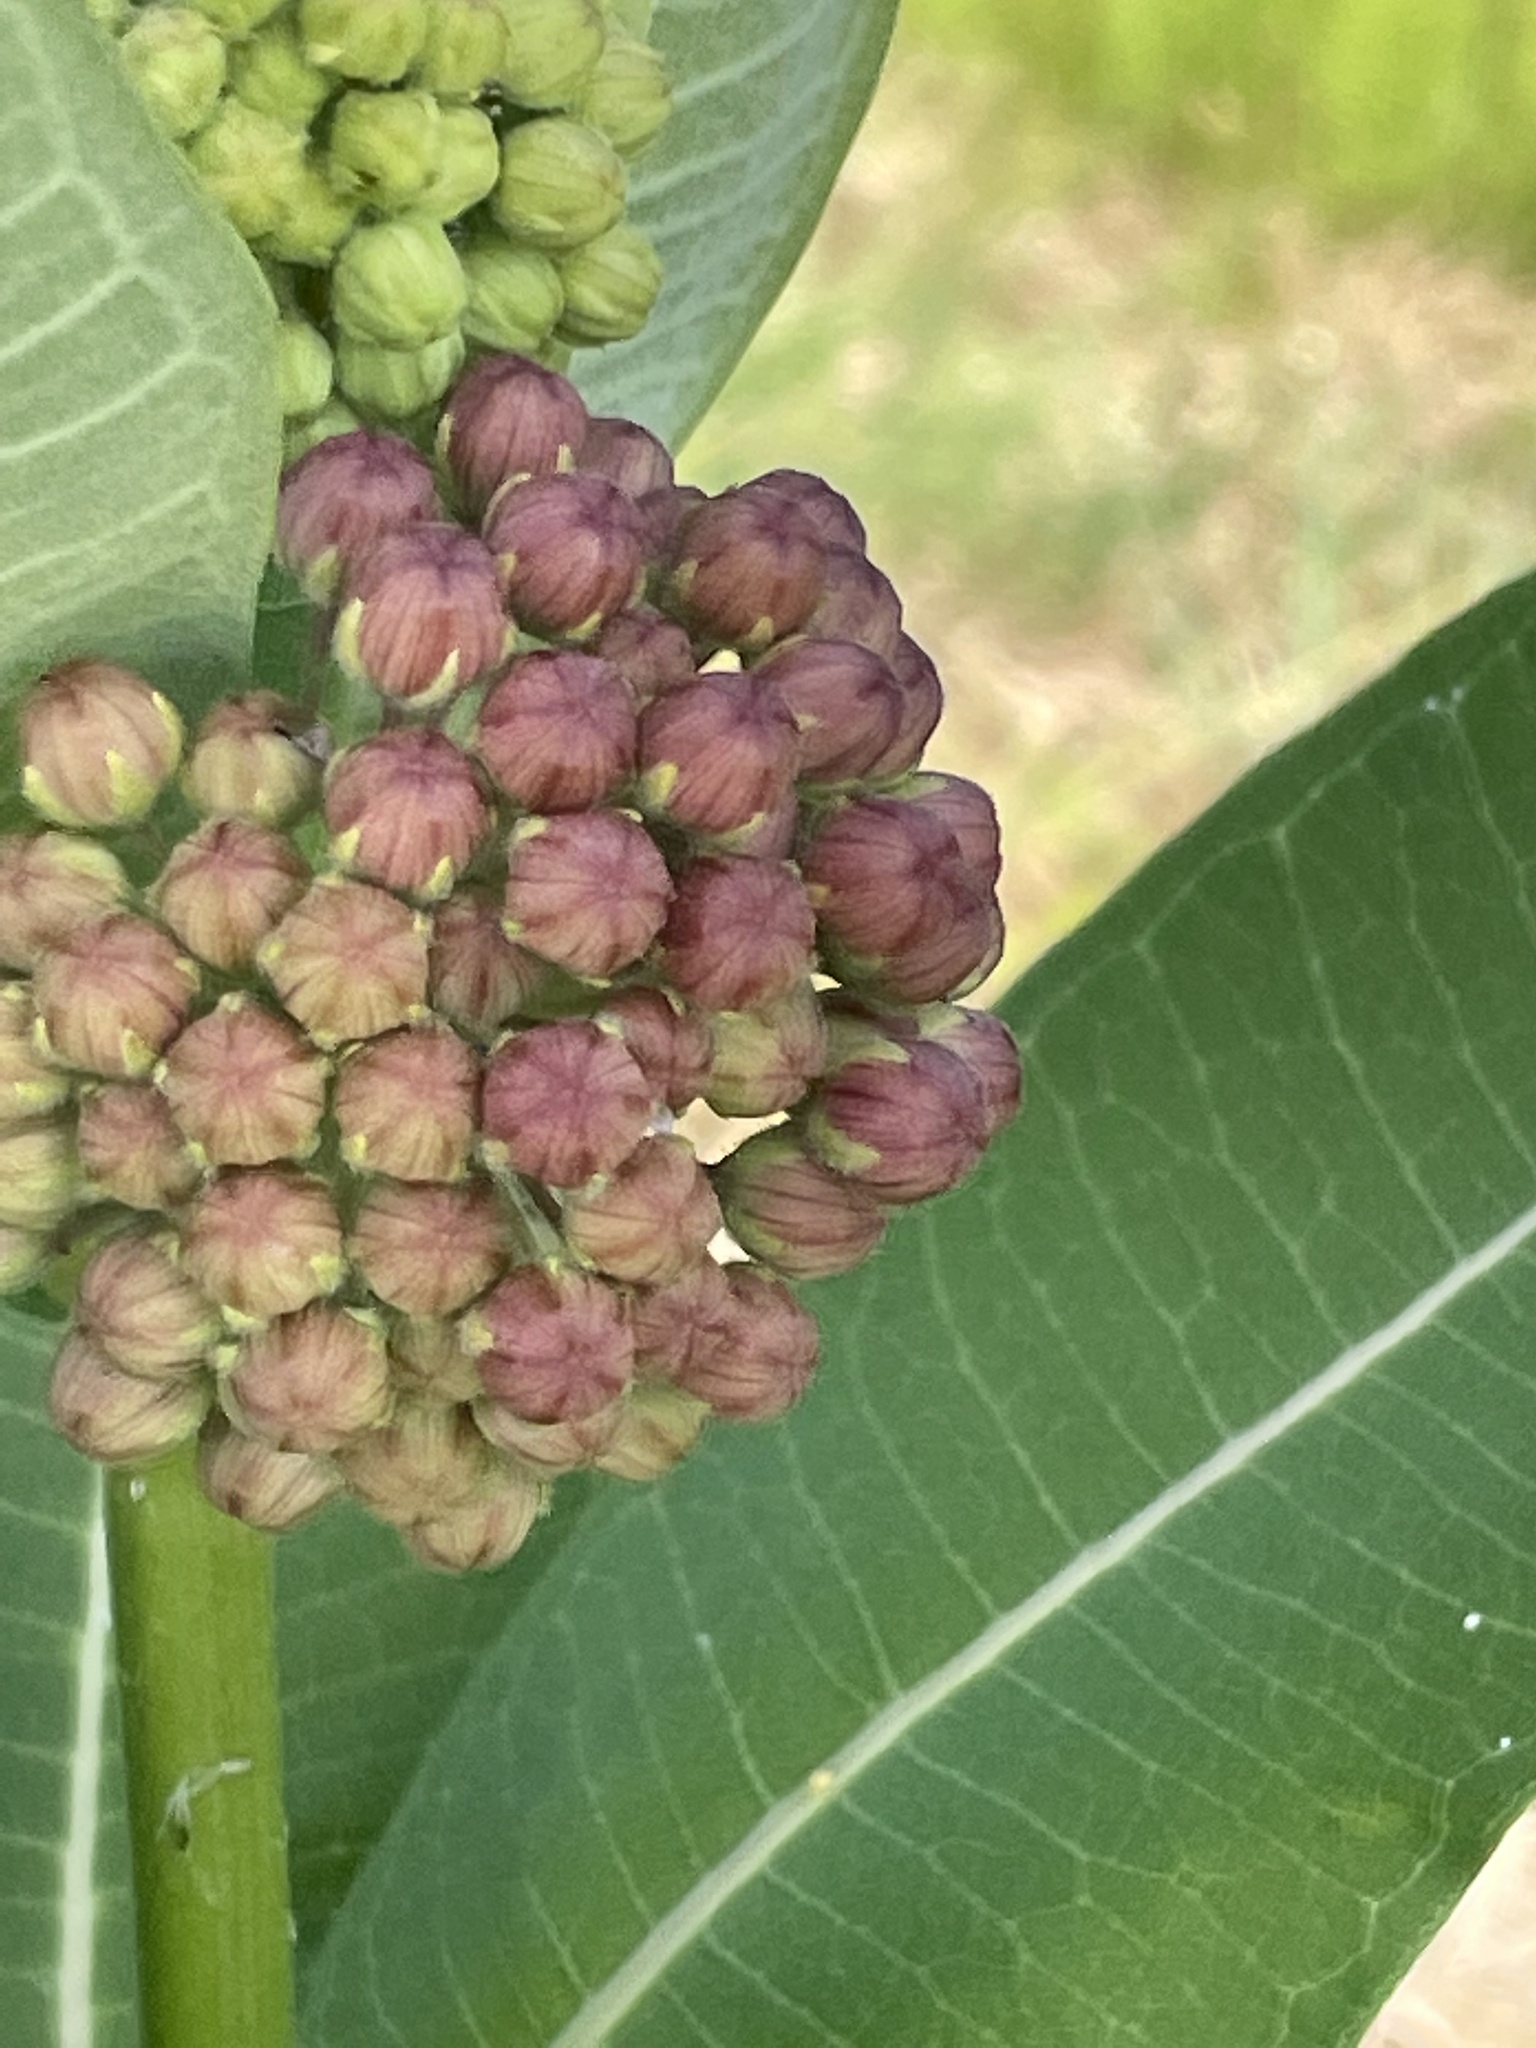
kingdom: Plantae
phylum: Tracheophyta
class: Magnoliopsida
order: Gentianales
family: Apocynaceae
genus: Asclepias
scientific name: Asclepias syriaca
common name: Common milkweed
